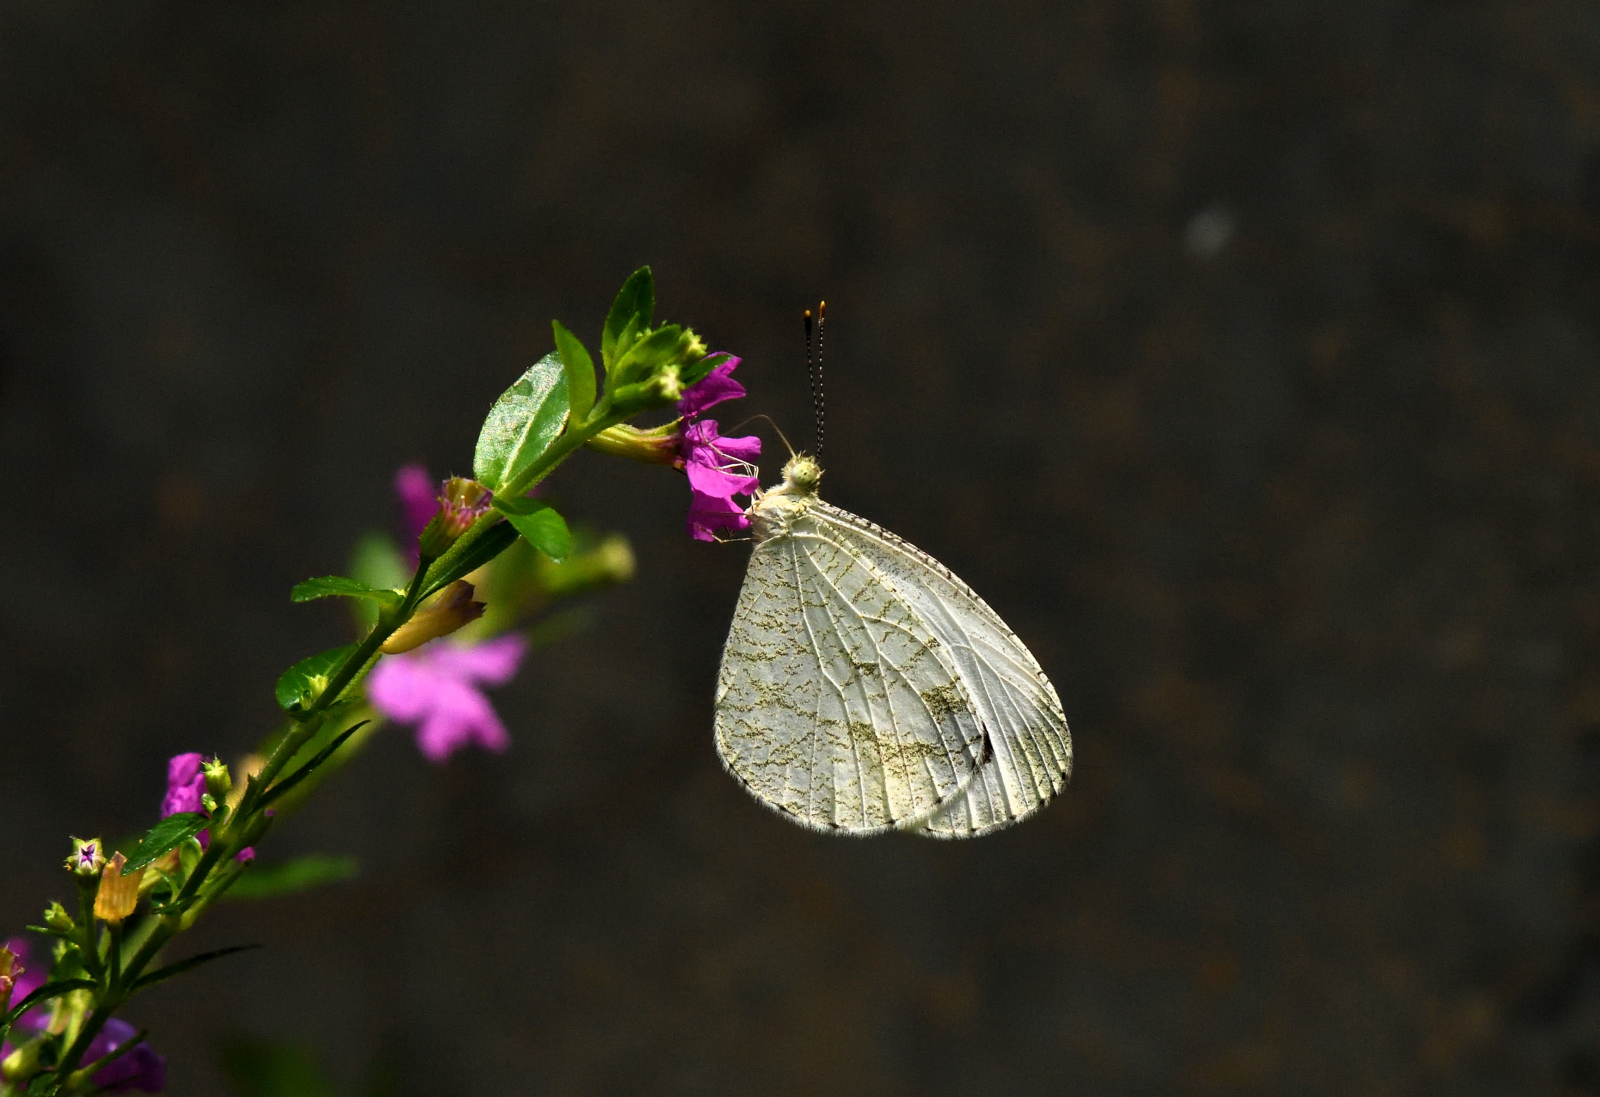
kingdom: Animalia
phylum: Arthropoda
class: Insecta
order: Lepidoptera
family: Pieridae
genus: Leptosia
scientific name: Leptosia nina
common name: Psyche
